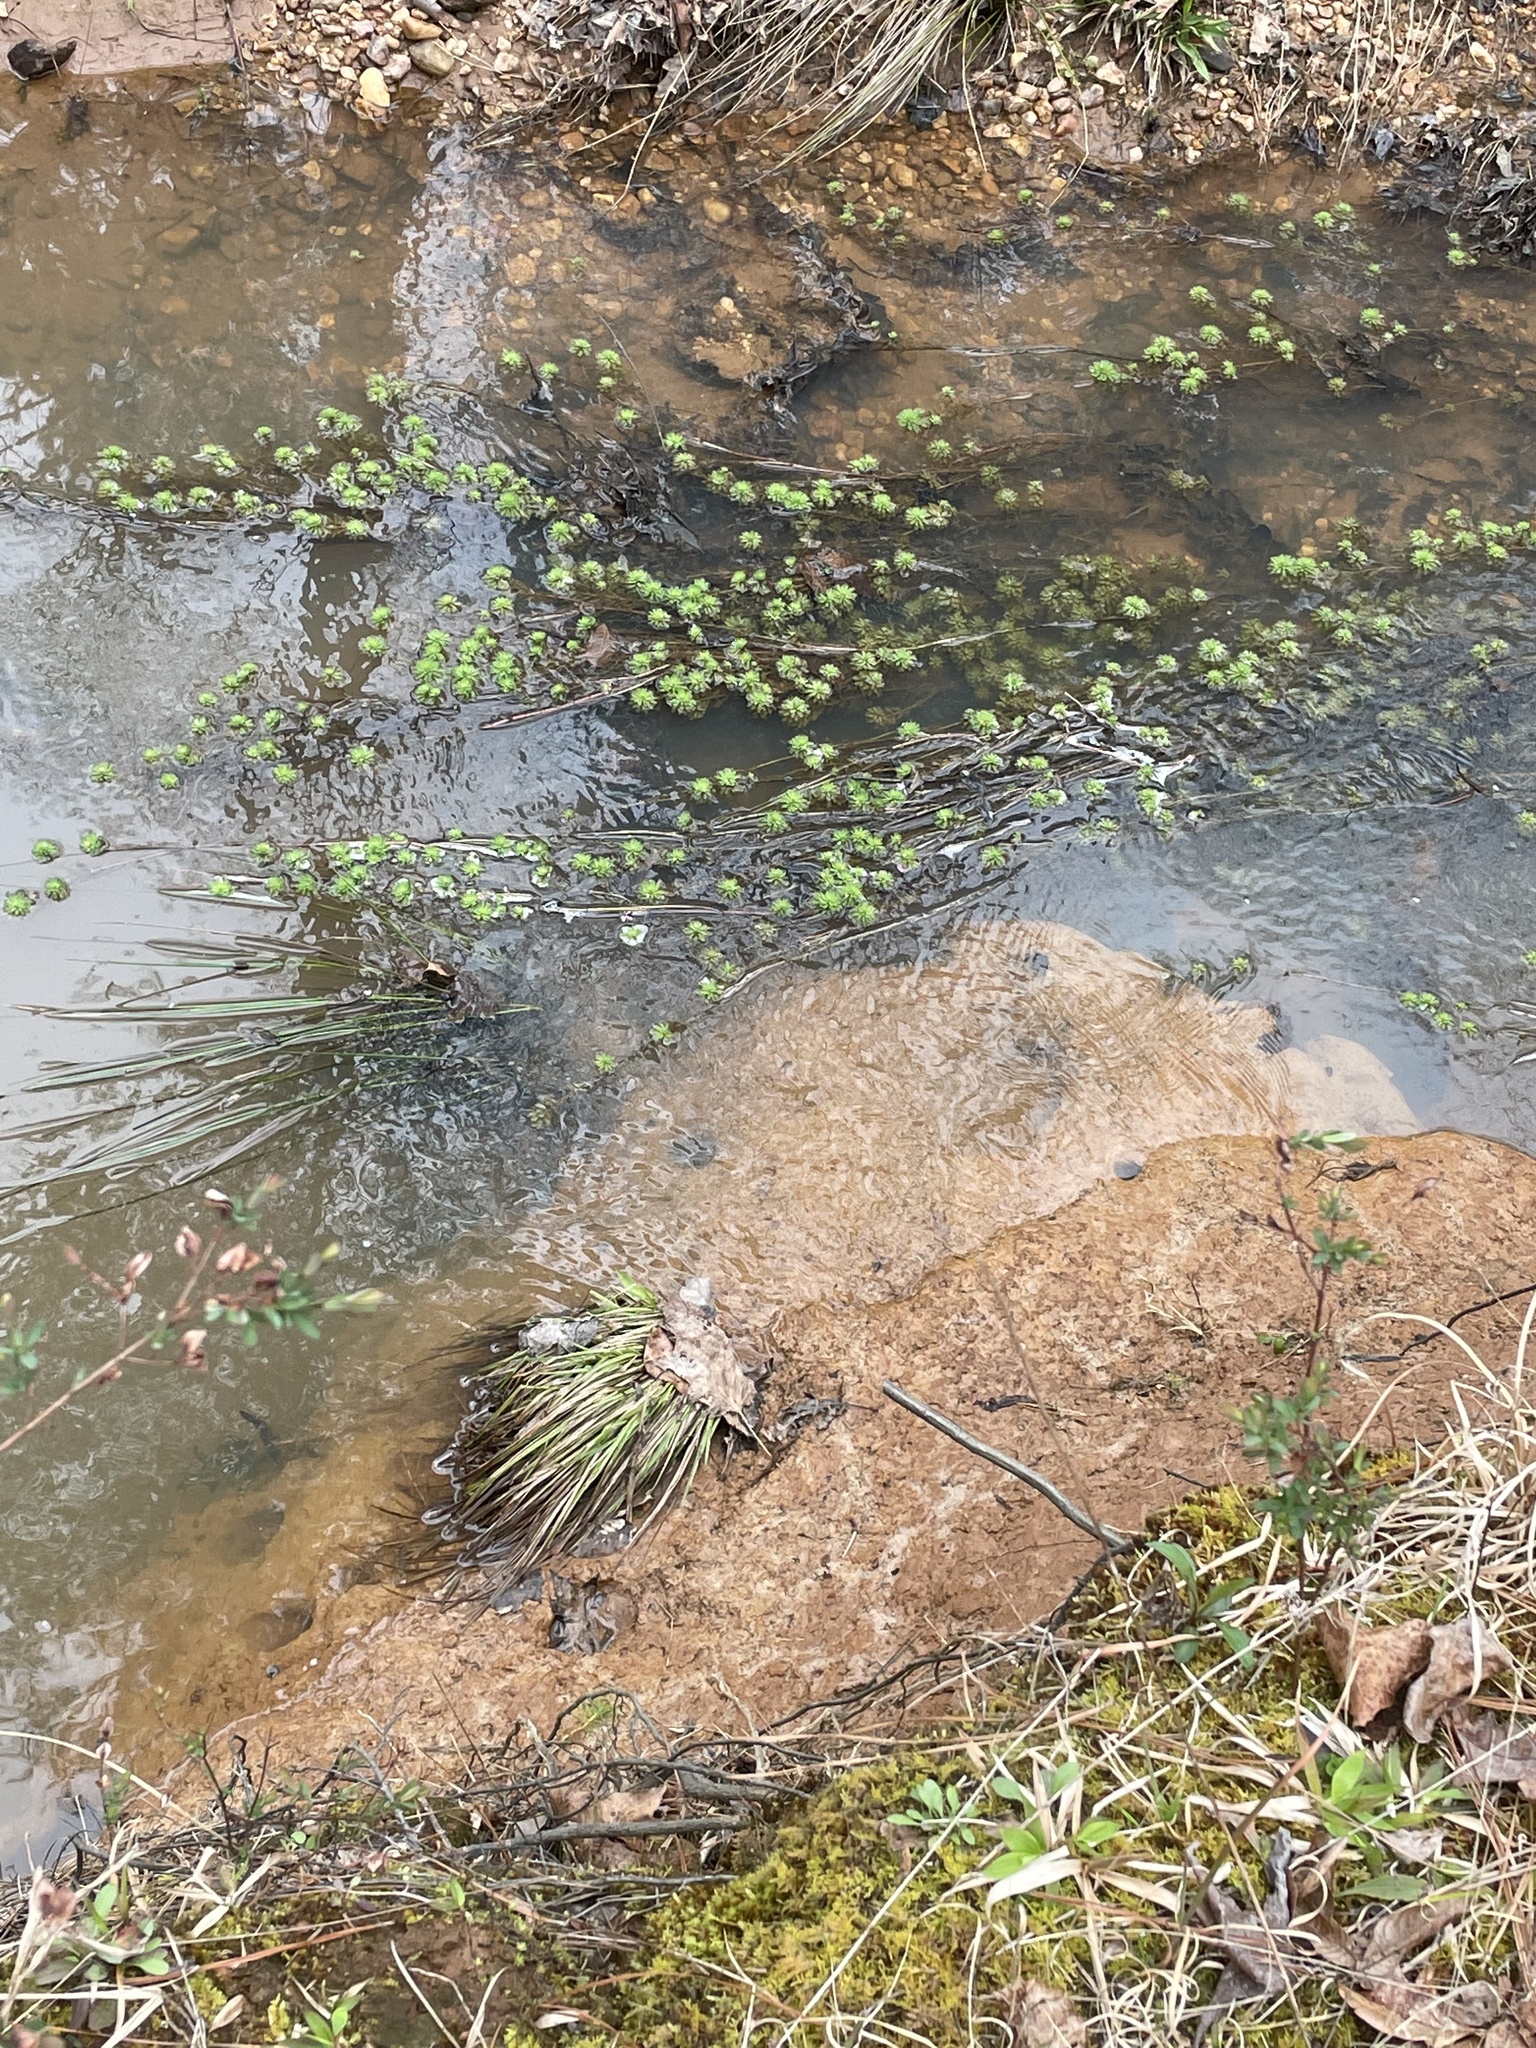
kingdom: Plantae
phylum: Tracheophyta
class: Magnoliopsida
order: Saxifragales
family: Haloragaceae
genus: Myriophyllum
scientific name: Myriophyllum aquaticum
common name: Parrot's feather
